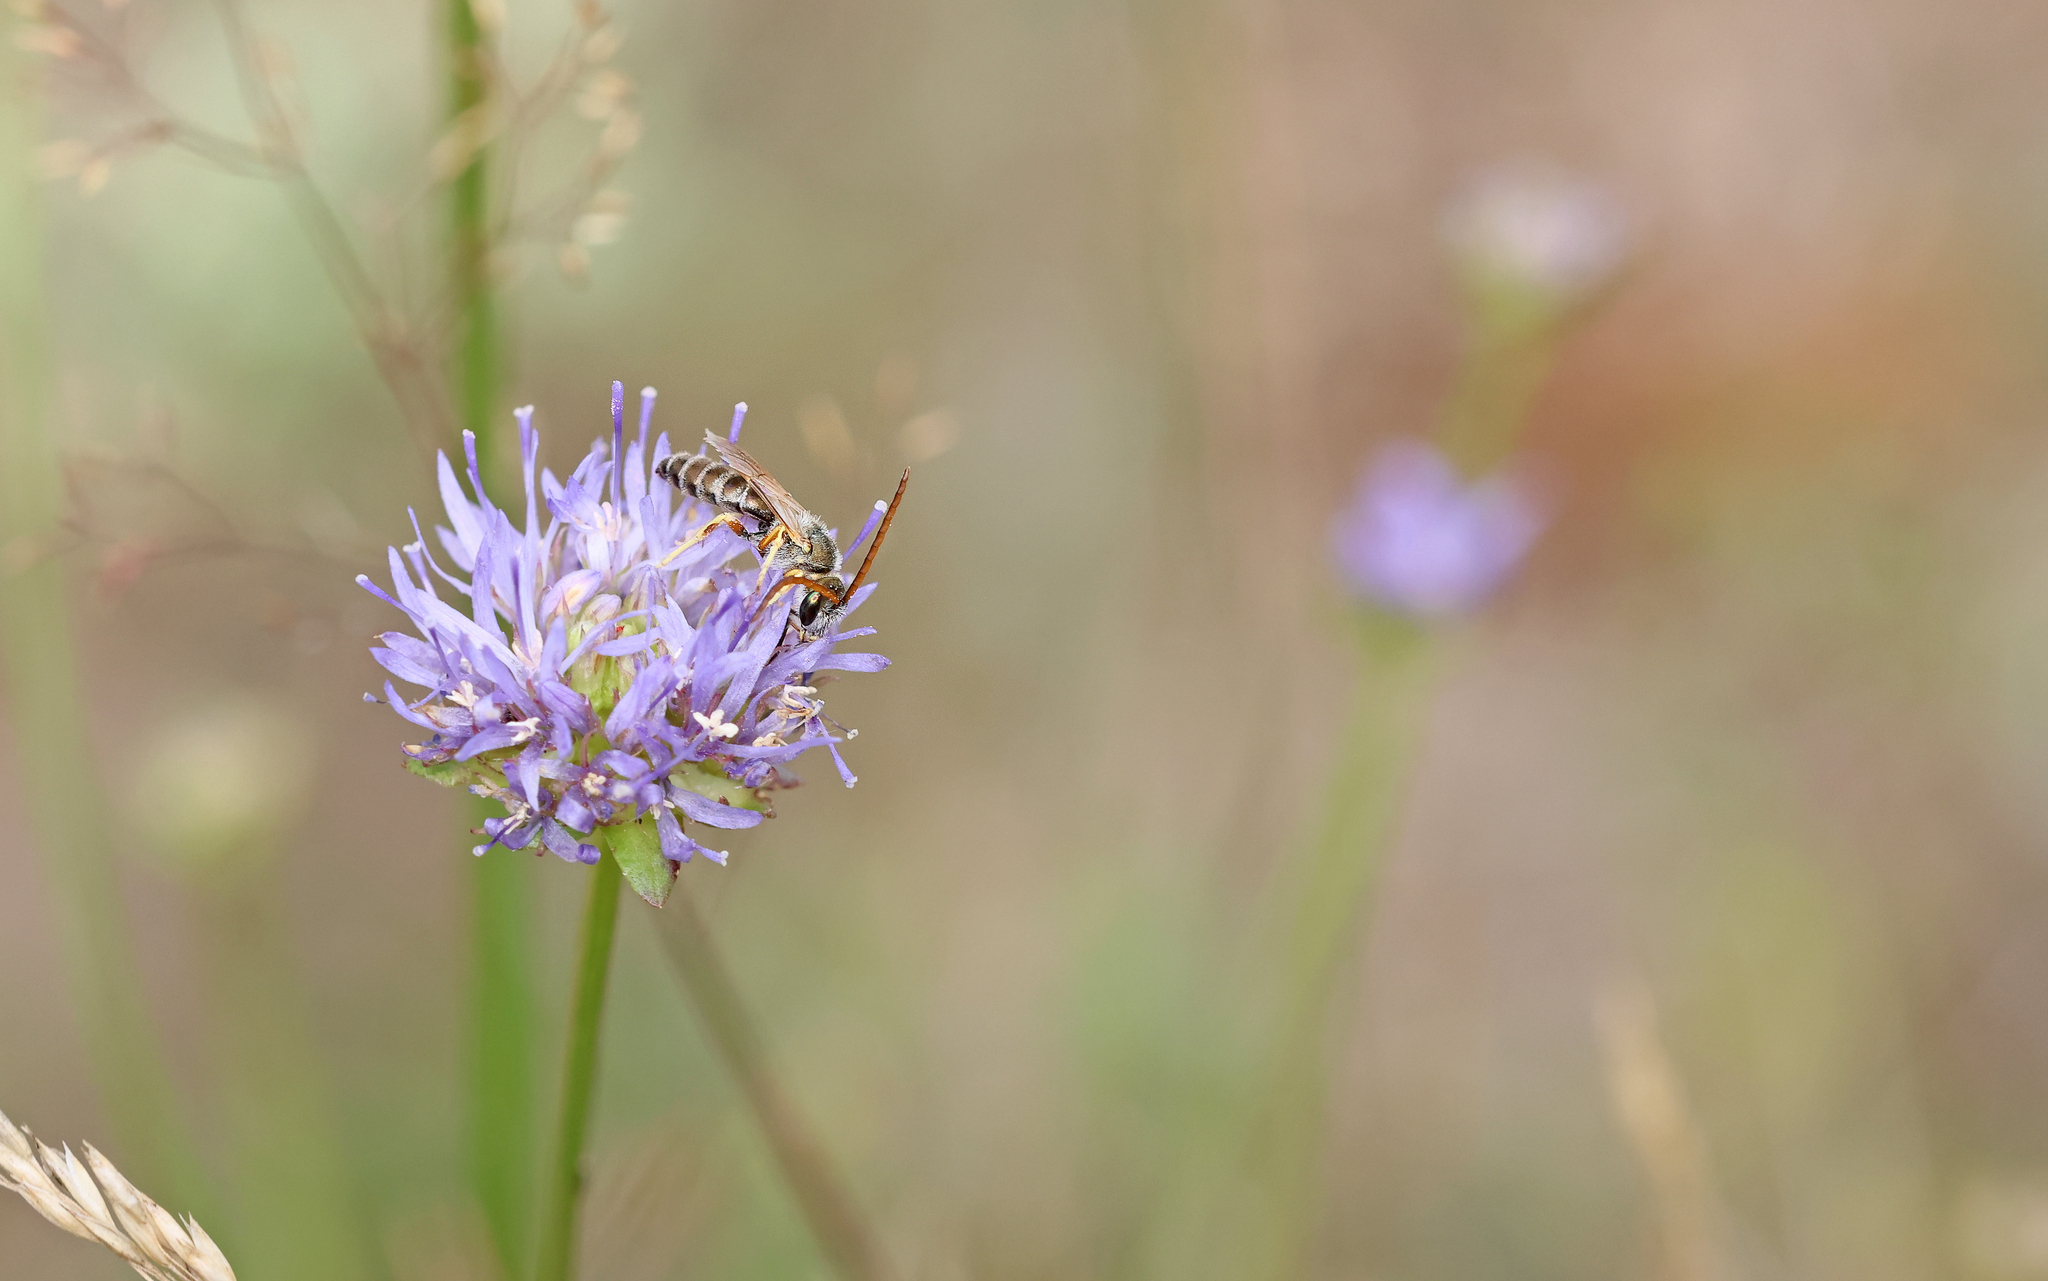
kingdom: Animalia
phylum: Arthropoda
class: Insecta
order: Hymenoptera
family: Halictidae
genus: Halictus
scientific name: Halictus leucaheneus
